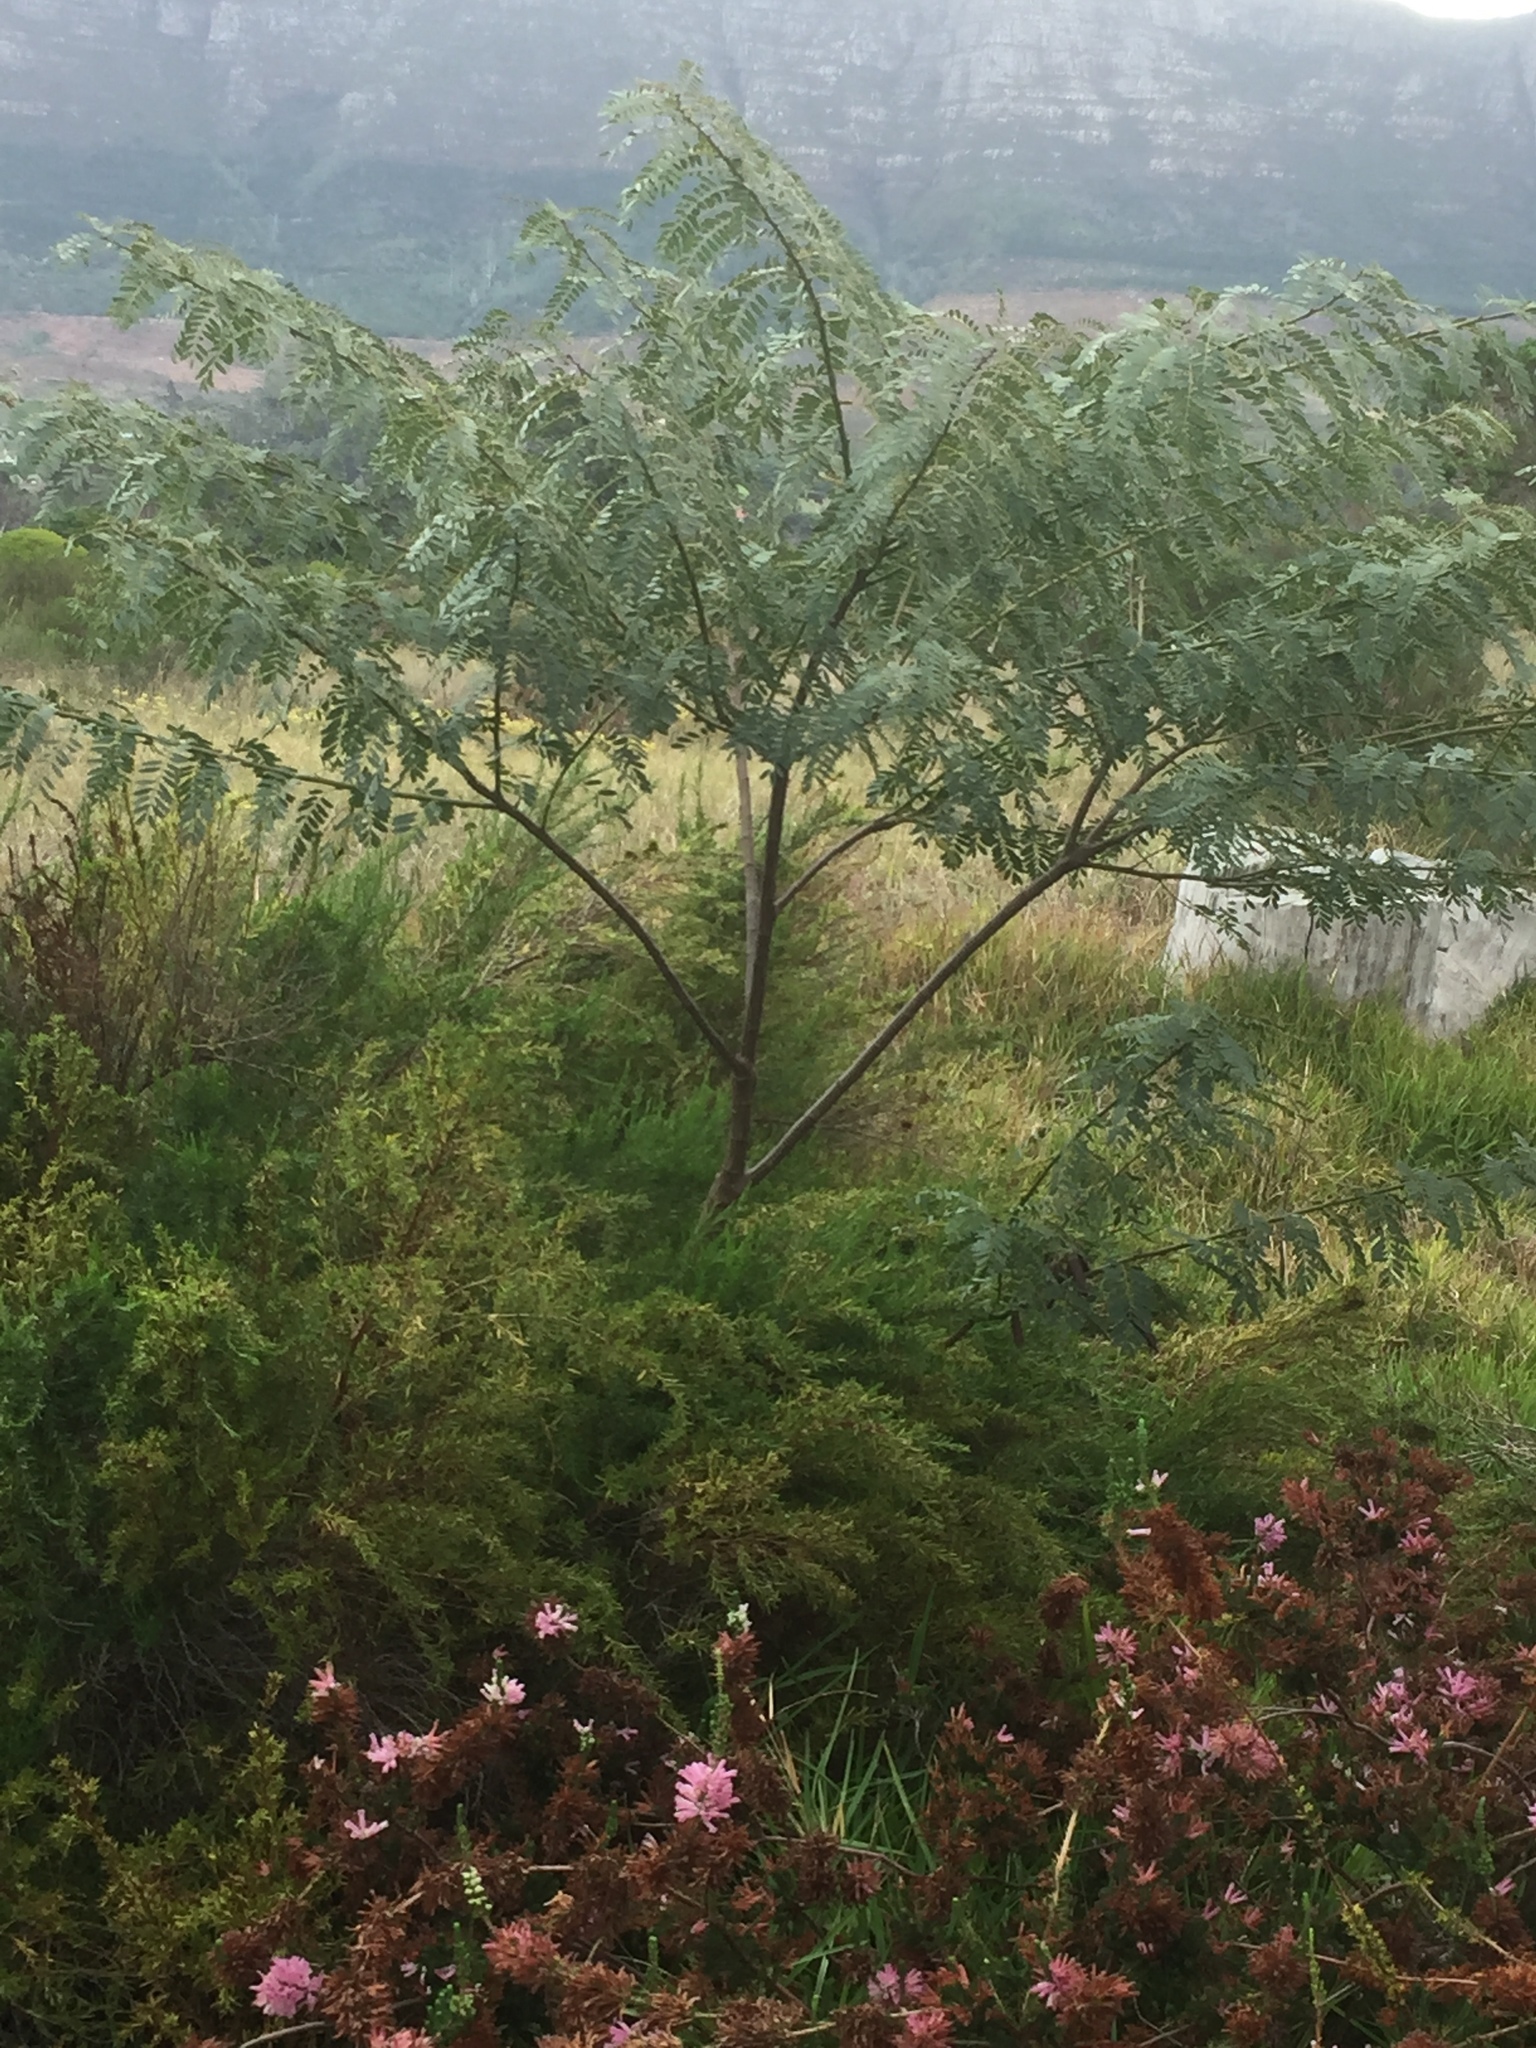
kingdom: Plantae
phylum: Tracheophyta
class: Magnoliopsida
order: Fabales
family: Fabaceae
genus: Sesbania
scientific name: Sesbania punicea
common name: Rattlebox
